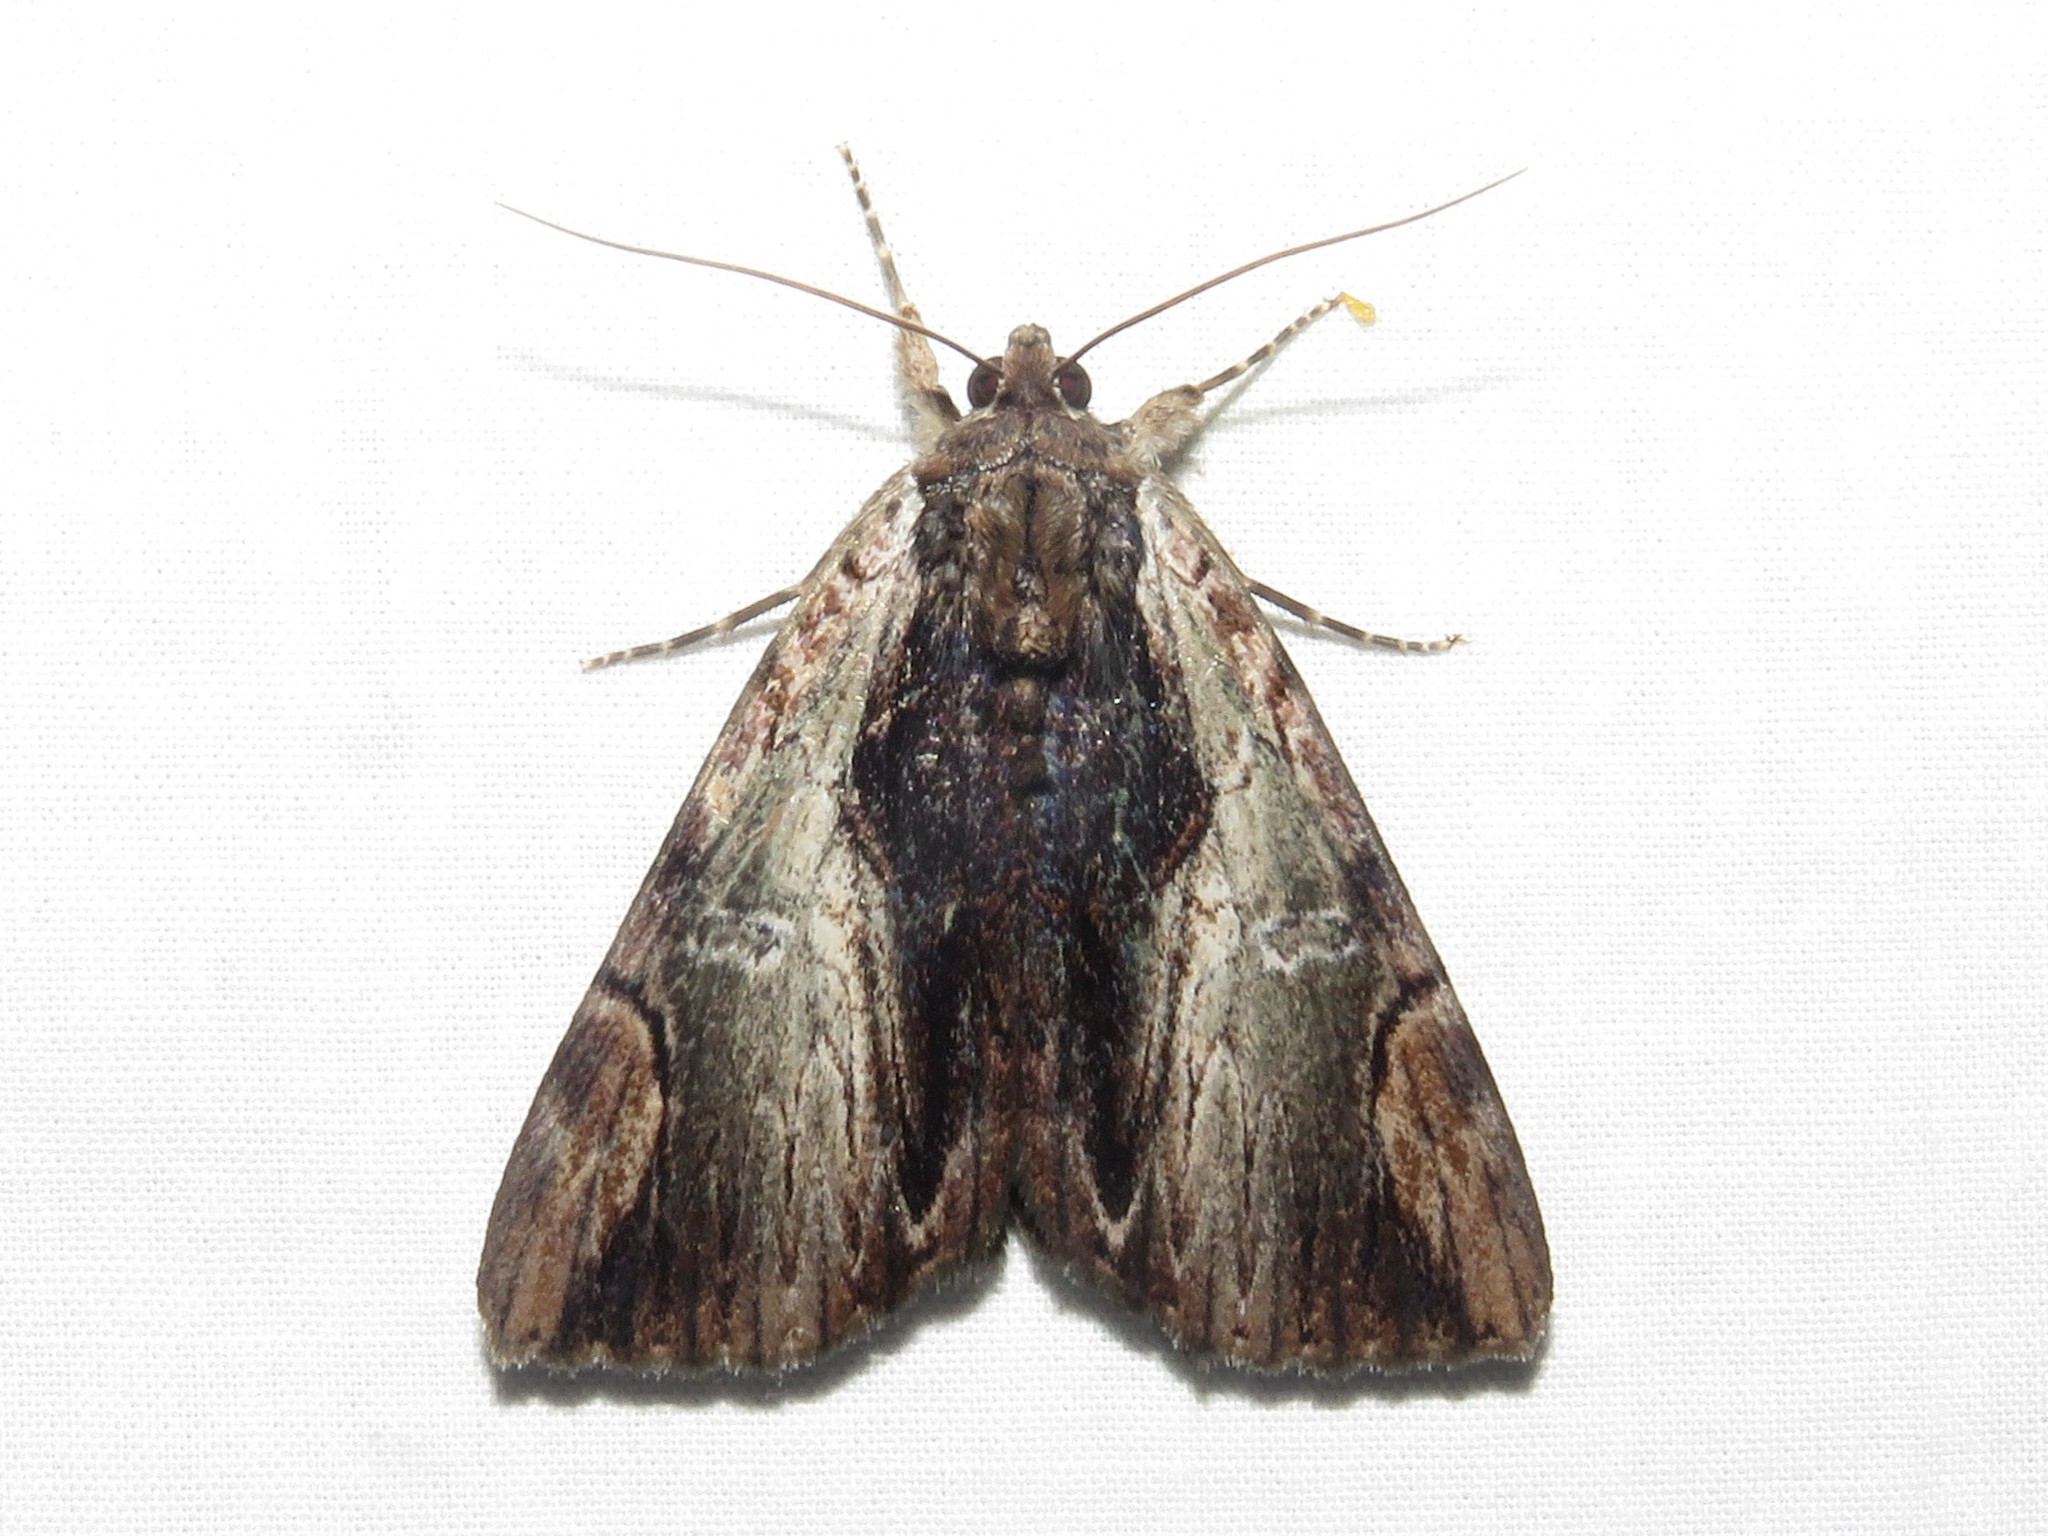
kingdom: Animalia
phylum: Arthropoda
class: Insecta
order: Lepidoptera
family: Erebidae
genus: Catocala
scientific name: Catocala ultronia
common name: Ultronia underwing
